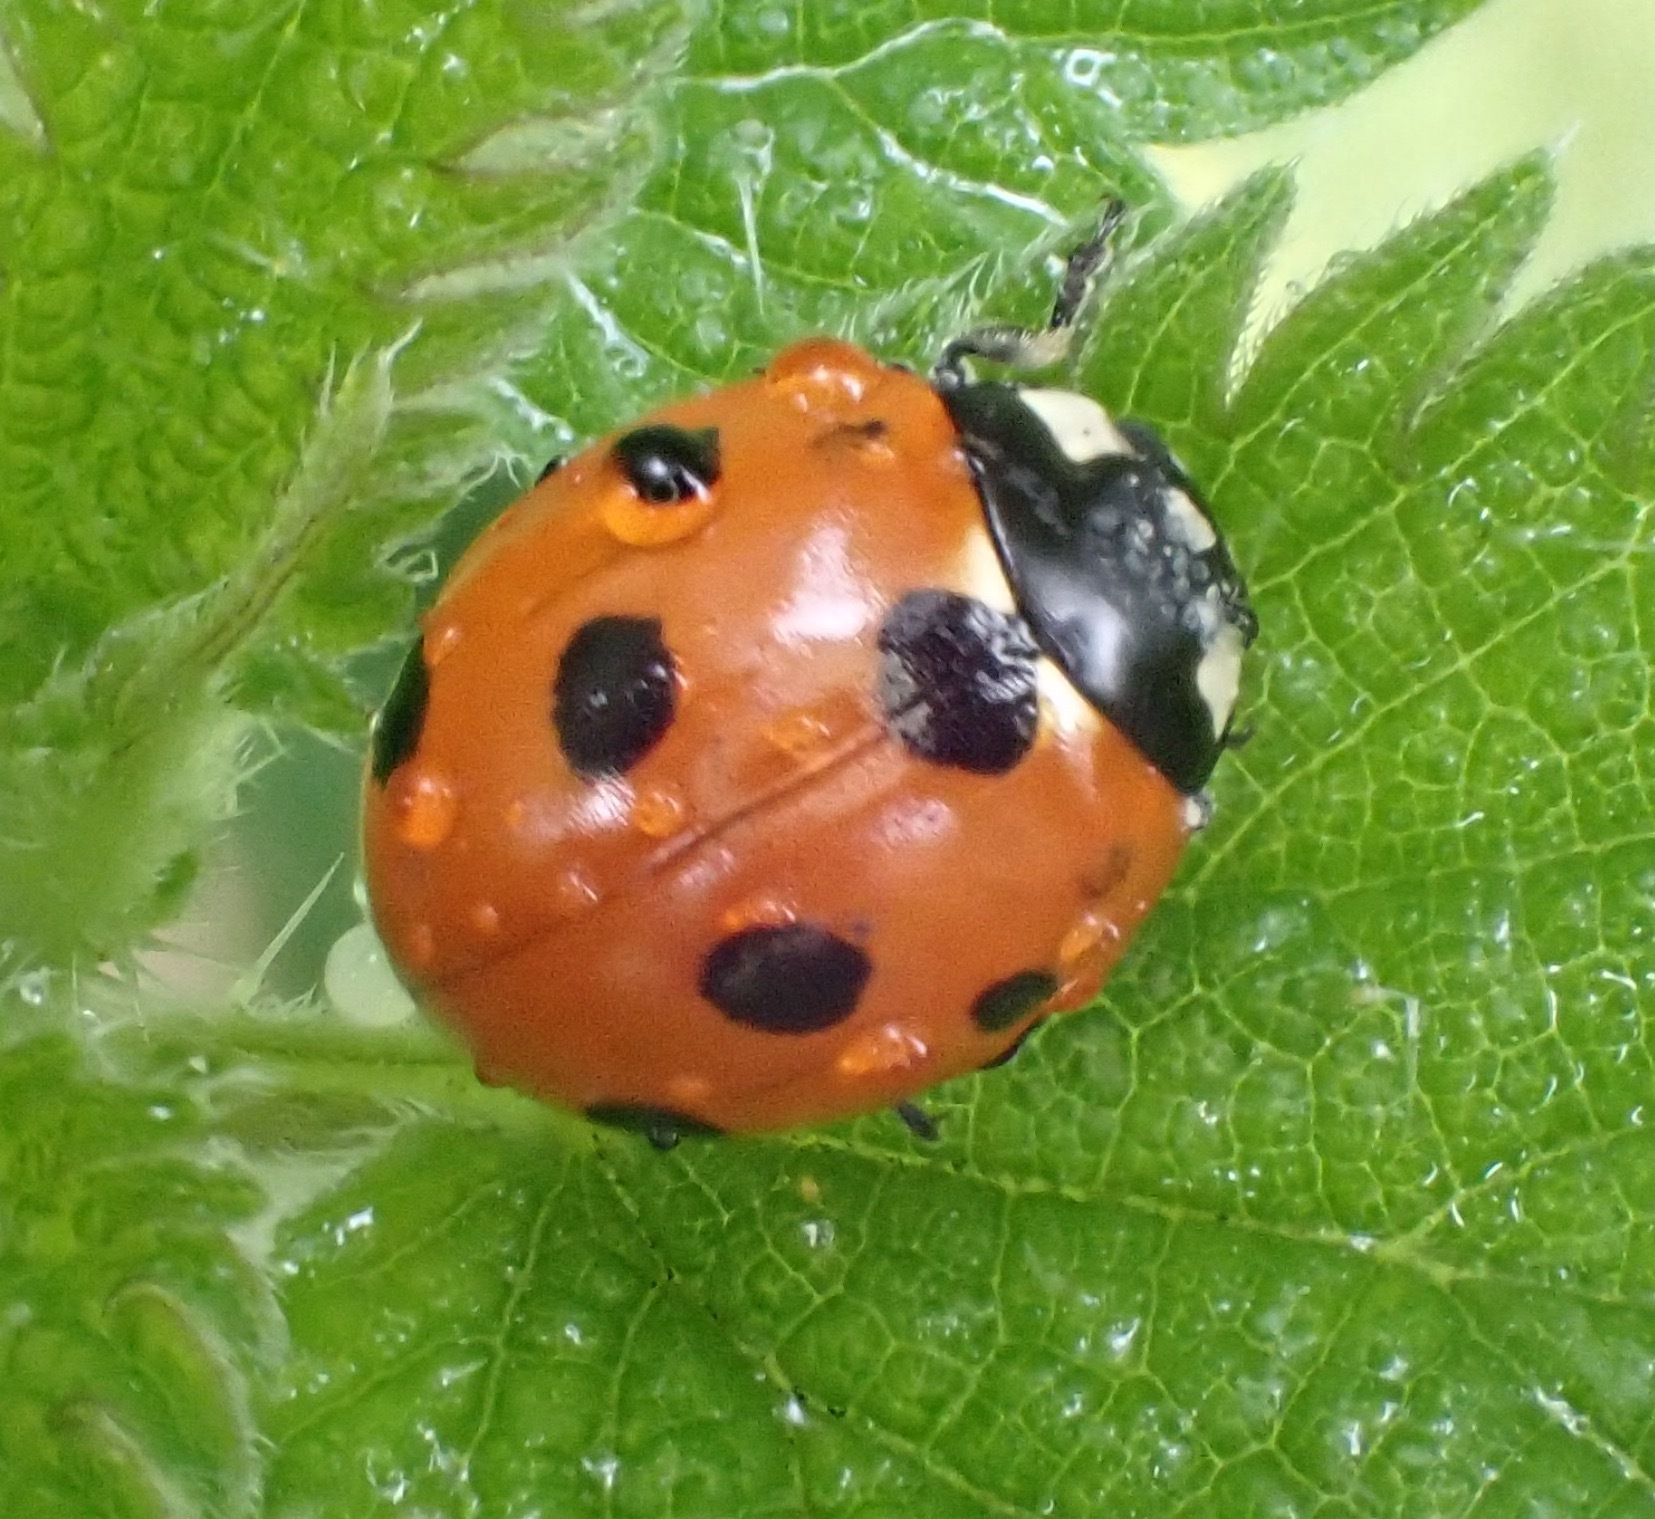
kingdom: Animalia
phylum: Arthropoda
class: Insecta
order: Coleoptera
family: Coccinellidae
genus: Coccinella
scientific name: Coccinella septempunctata
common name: Sevenspotted lady beetle
